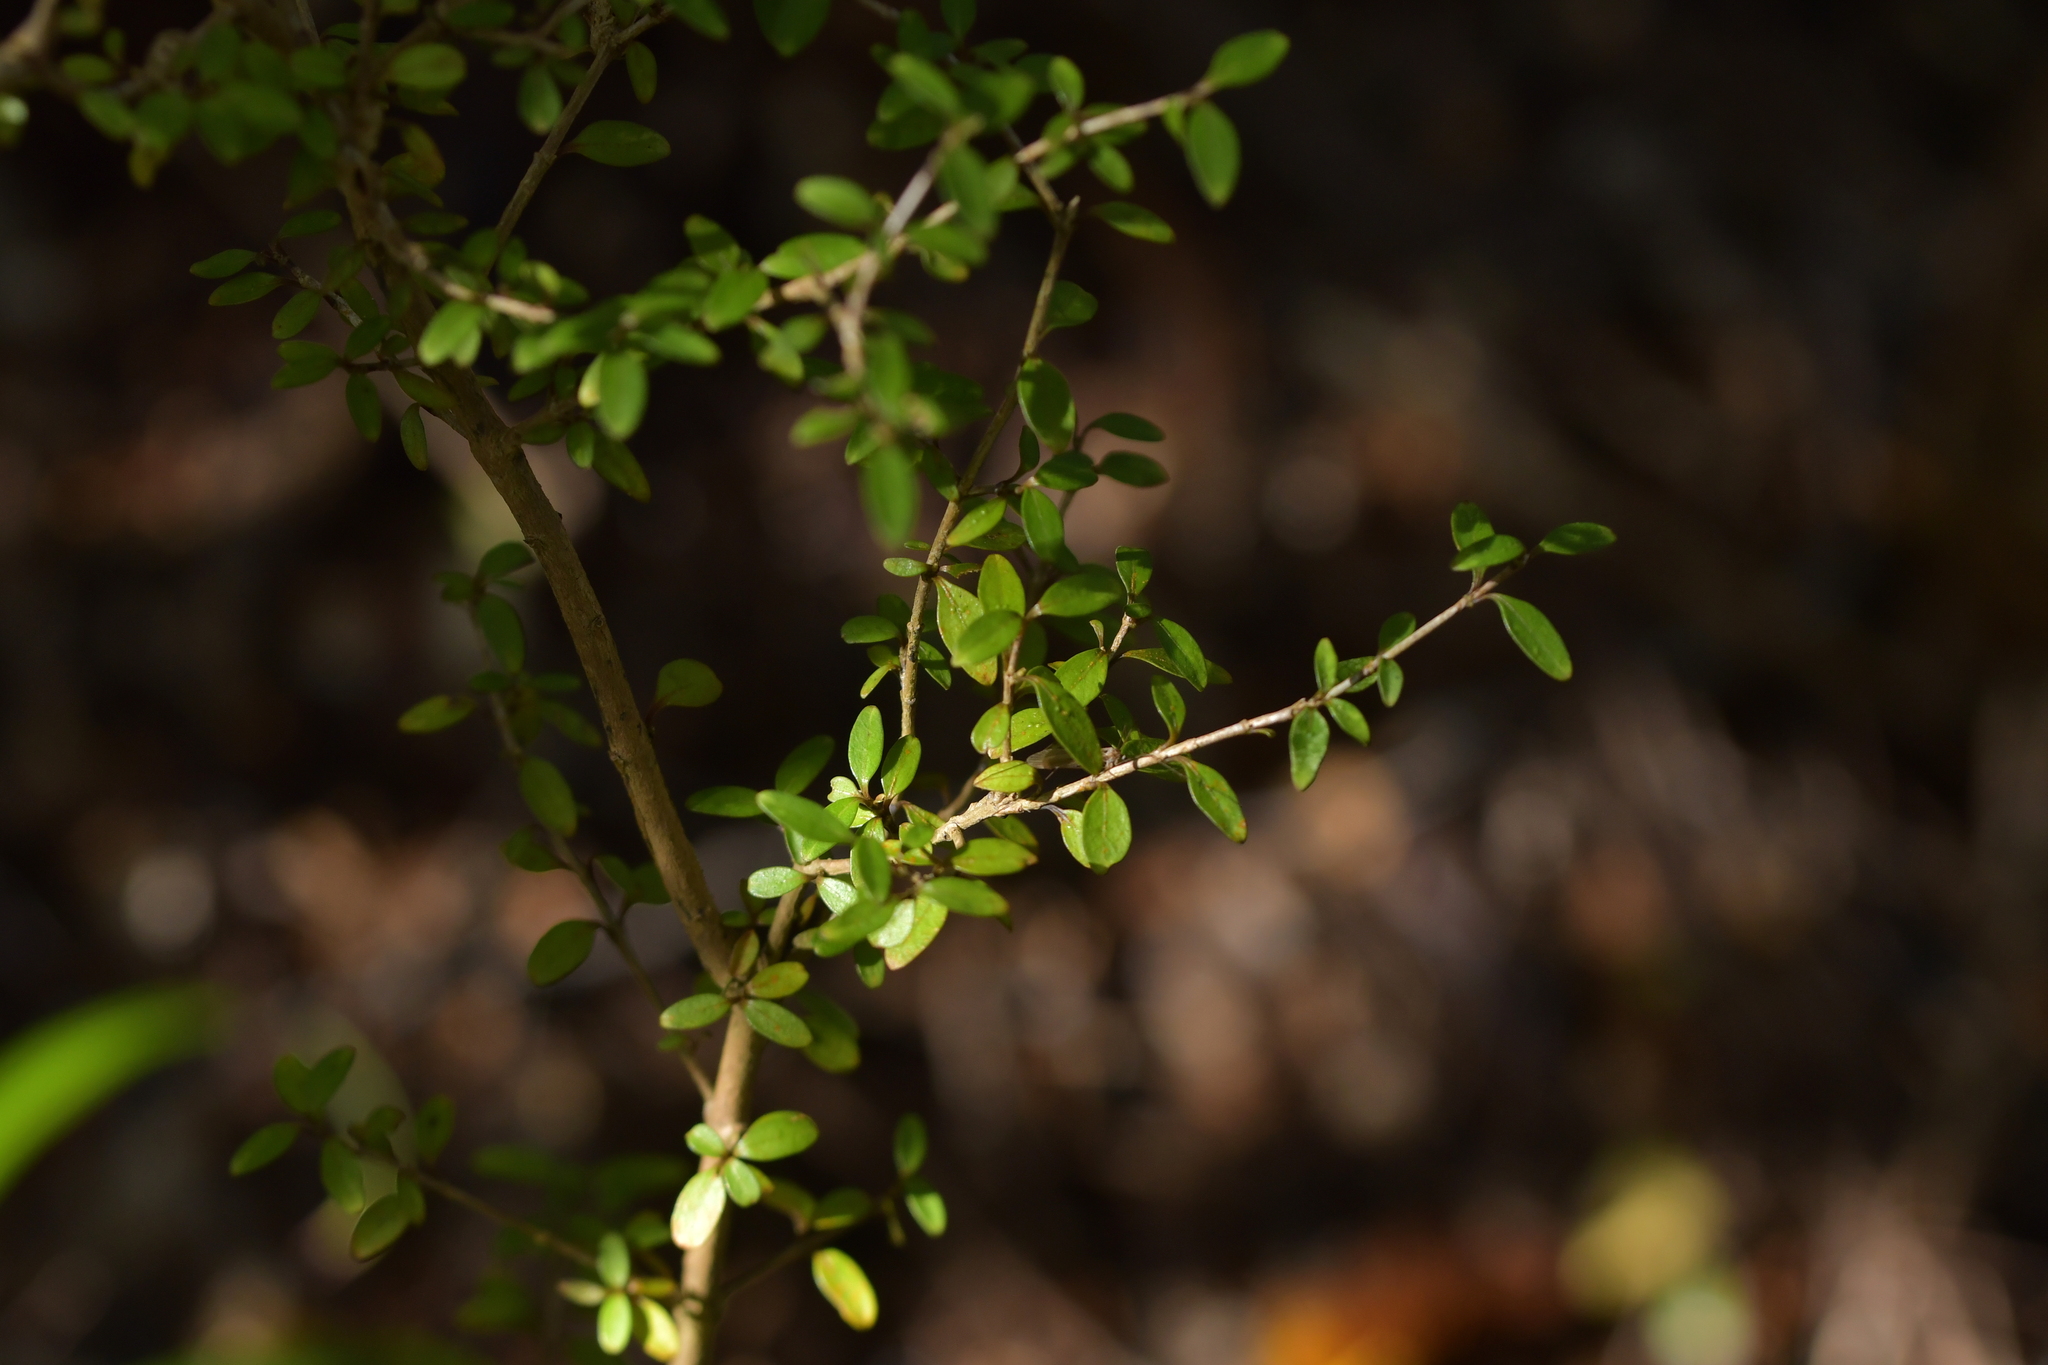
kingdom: Plantae
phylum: Tracheophyta
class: Magnoliopsida
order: Gentianales
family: Rubiaceae
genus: Coprosma
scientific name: Coprosma colensoi
